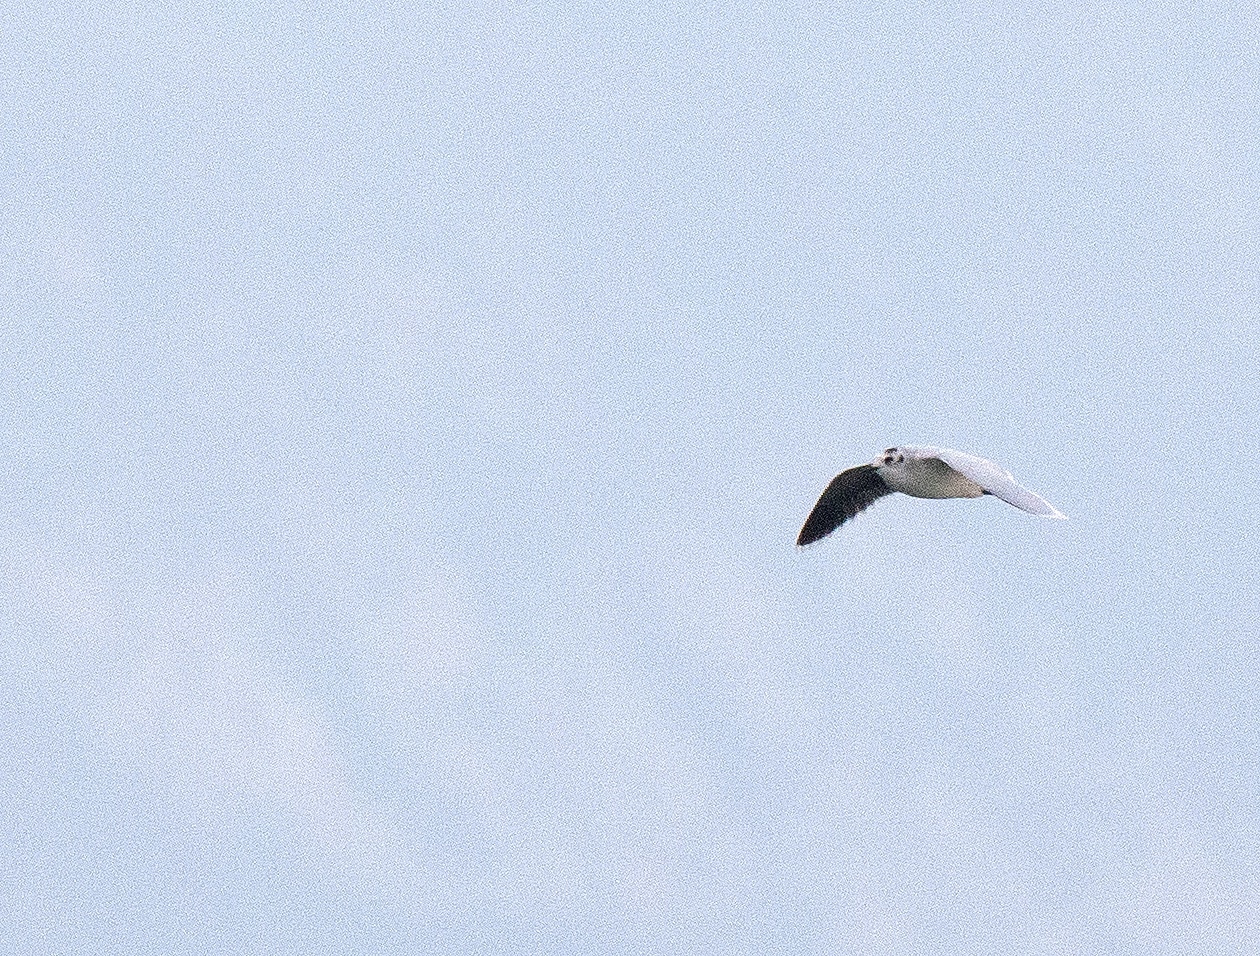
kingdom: Animalia
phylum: Chordata
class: Aves
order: Charadriiformes
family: Laridae
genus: Hydrocoloeus
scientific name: Hydrocoloeus minutus
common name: Little gull
